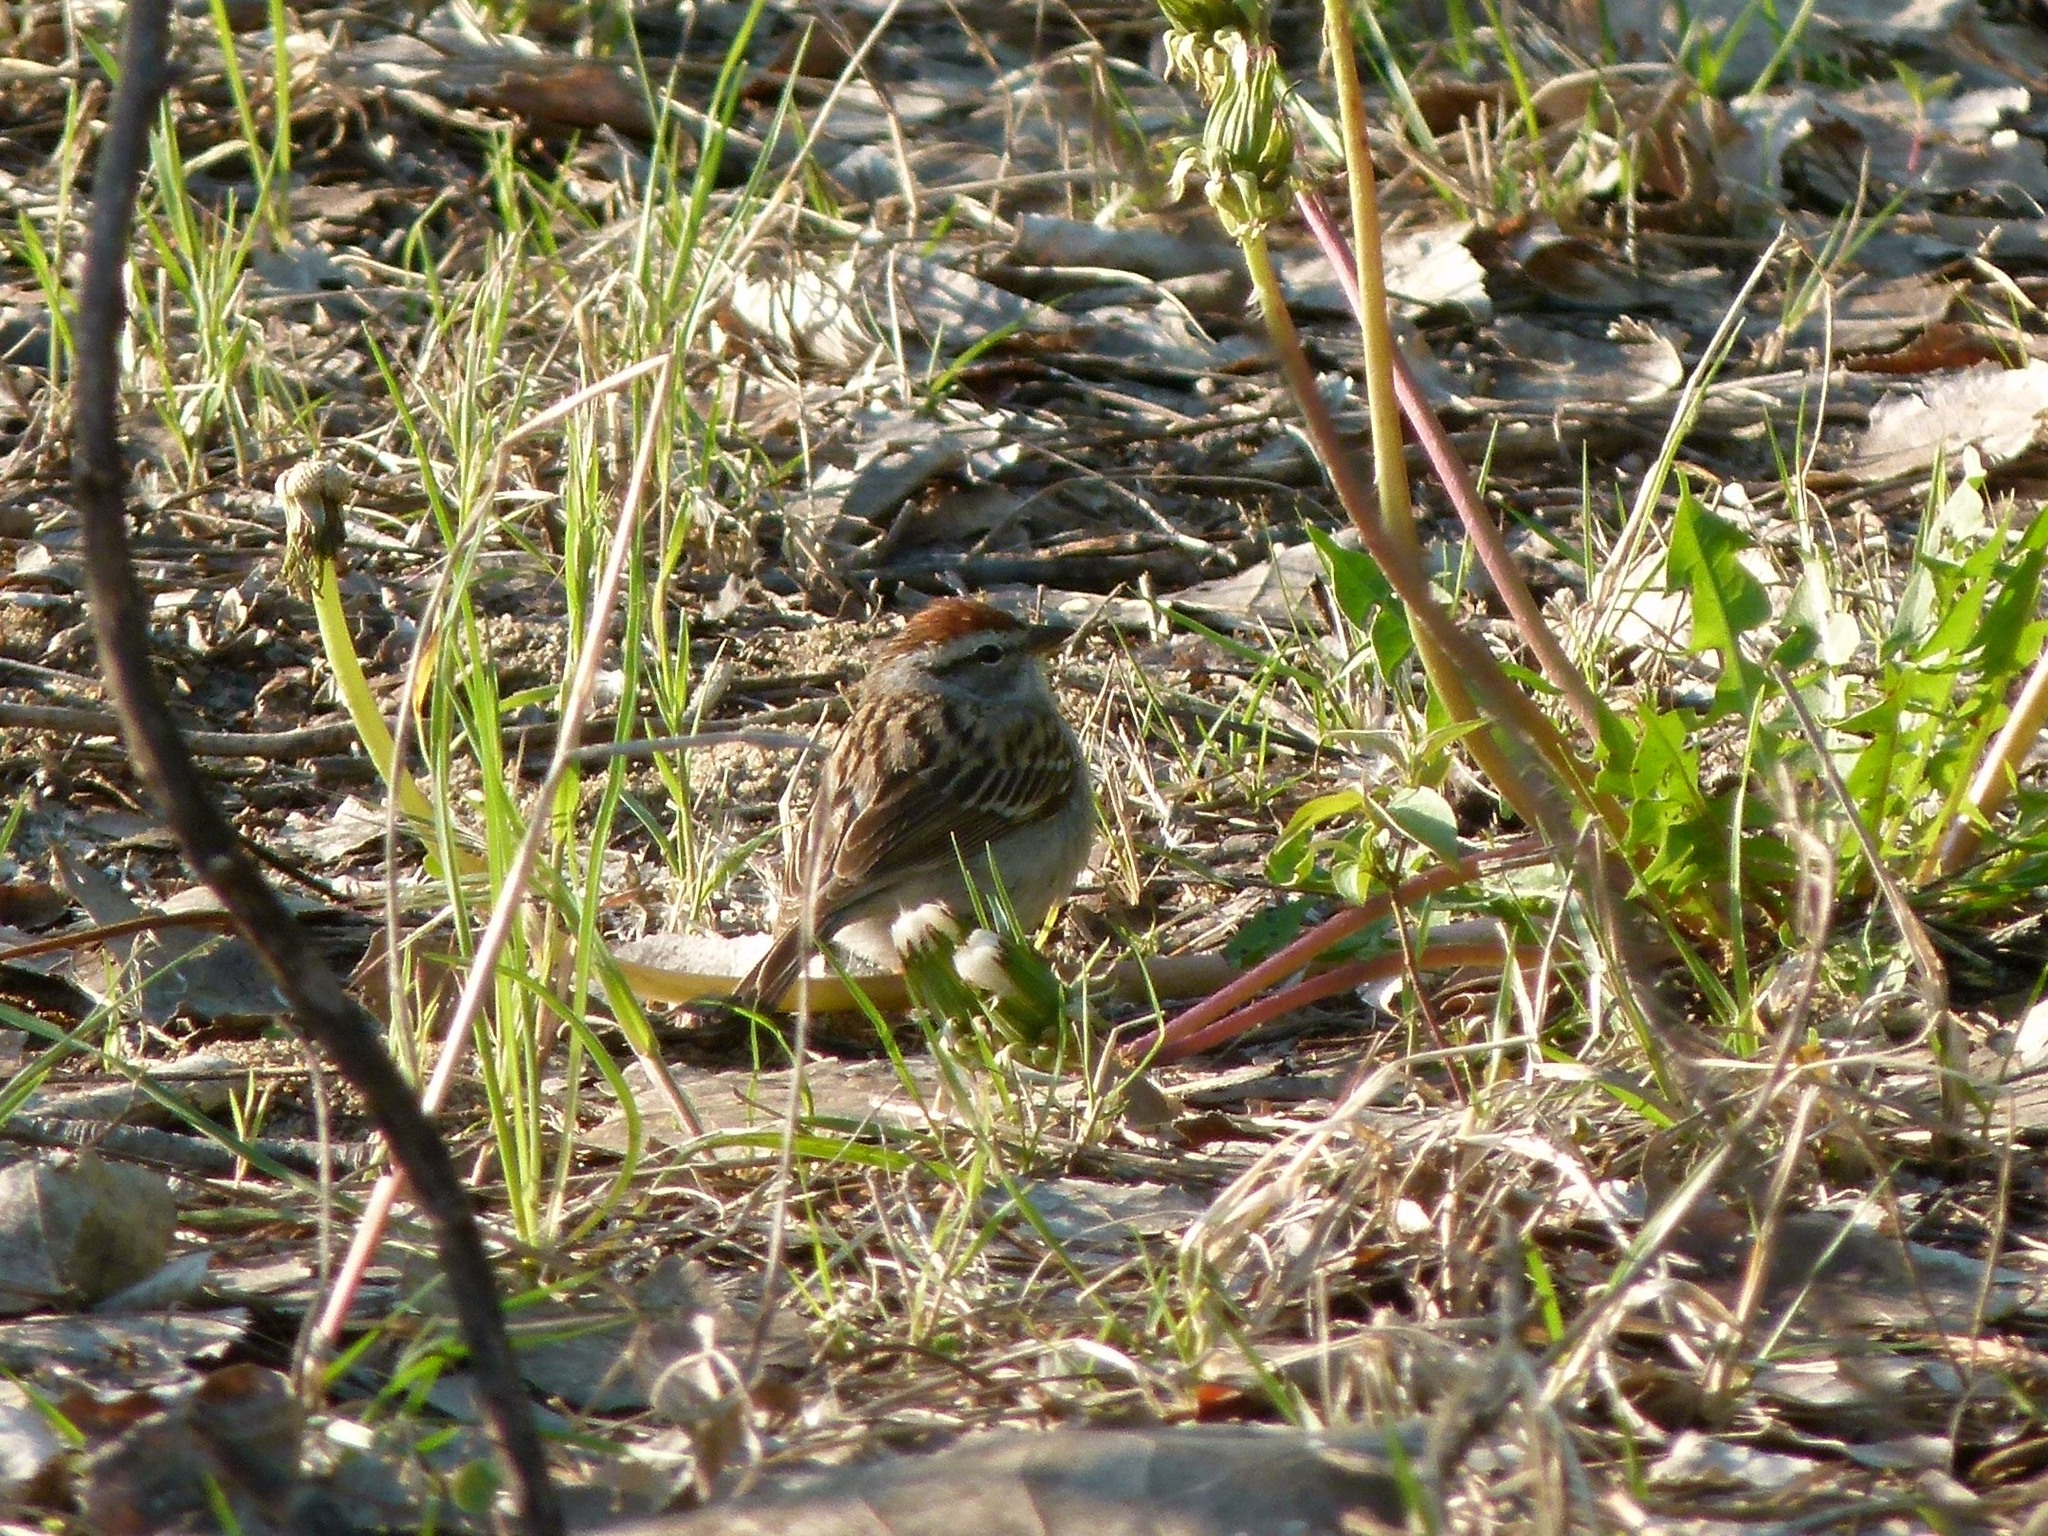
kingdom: Animalia
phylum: Chordata
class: Aves
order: Passeriformes
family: Passerellidae
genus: Spizella
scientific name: Spizella passerina
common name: Chipping sparrow
